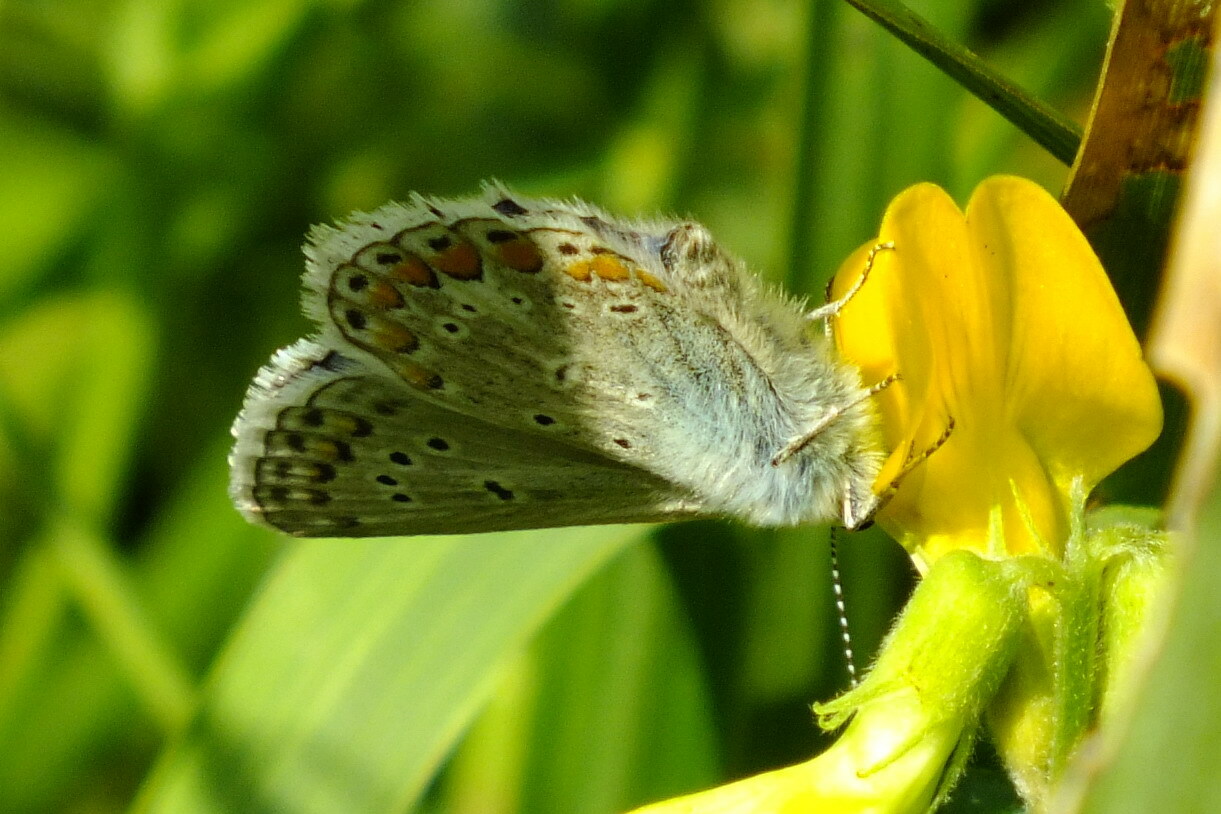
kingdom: Animalia
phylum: Arthropoda
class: Insecta
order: Lepidoptera
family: Lycaenidae
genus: Polyommatus
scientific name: Polyommatus icarus
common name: Common blue
